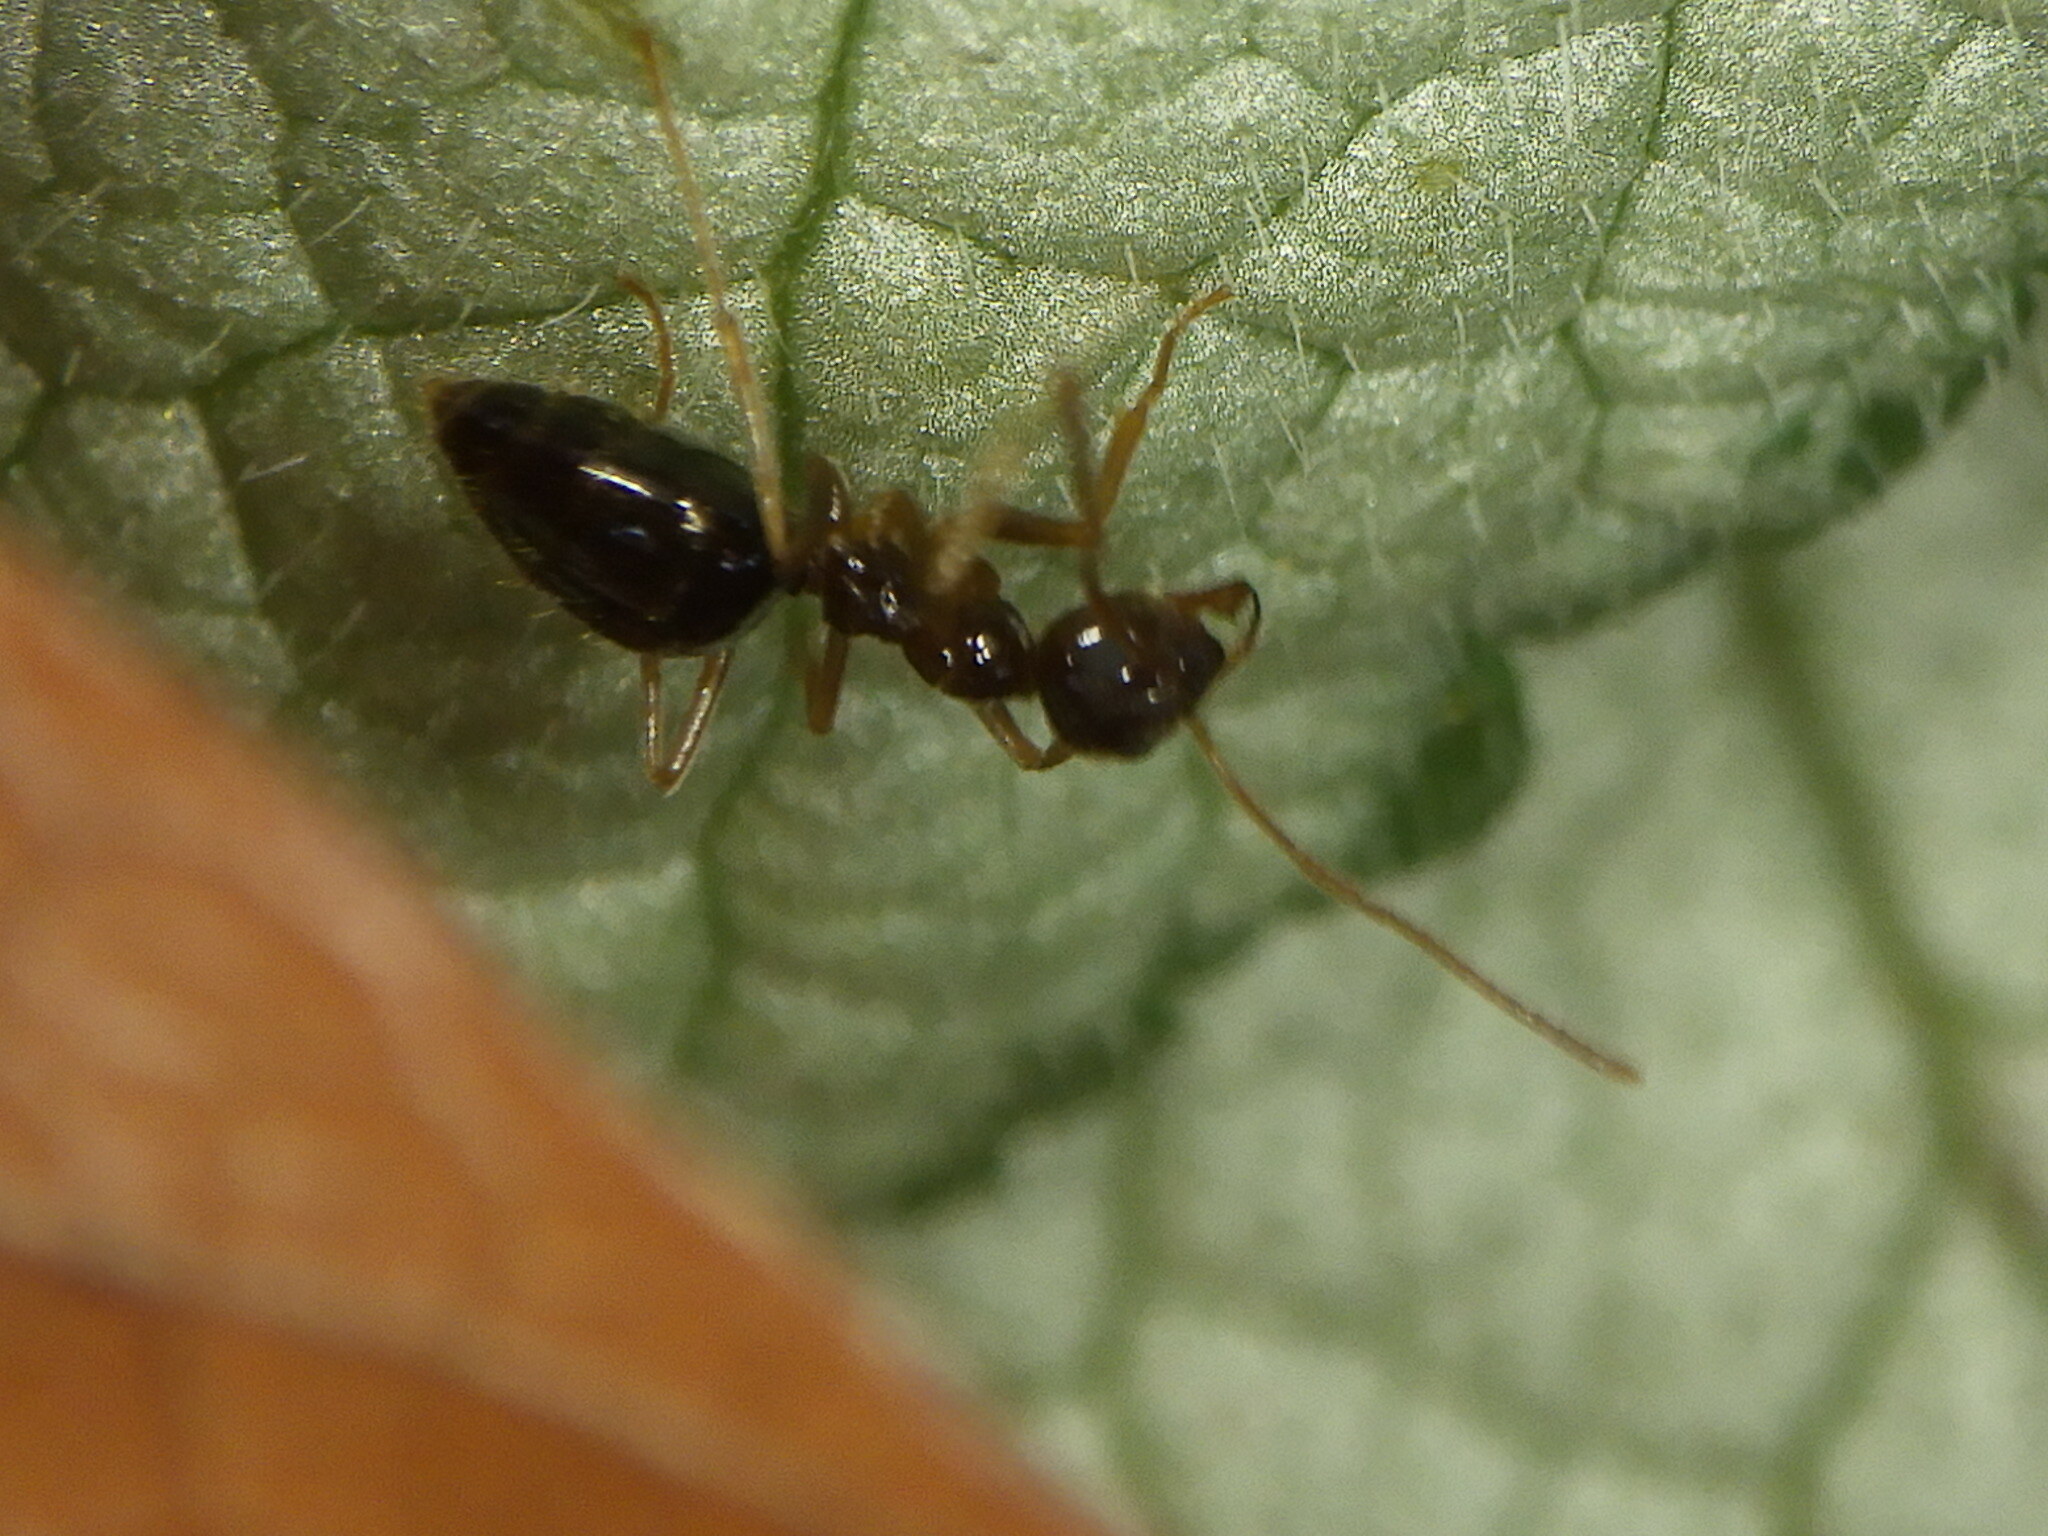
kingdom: Animalia
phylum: Arthropoda
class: Insecta
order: Hymenoptera
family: Formicidae
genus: Prenolepis
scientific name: Prenolepis imparis
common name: Small honey ant
